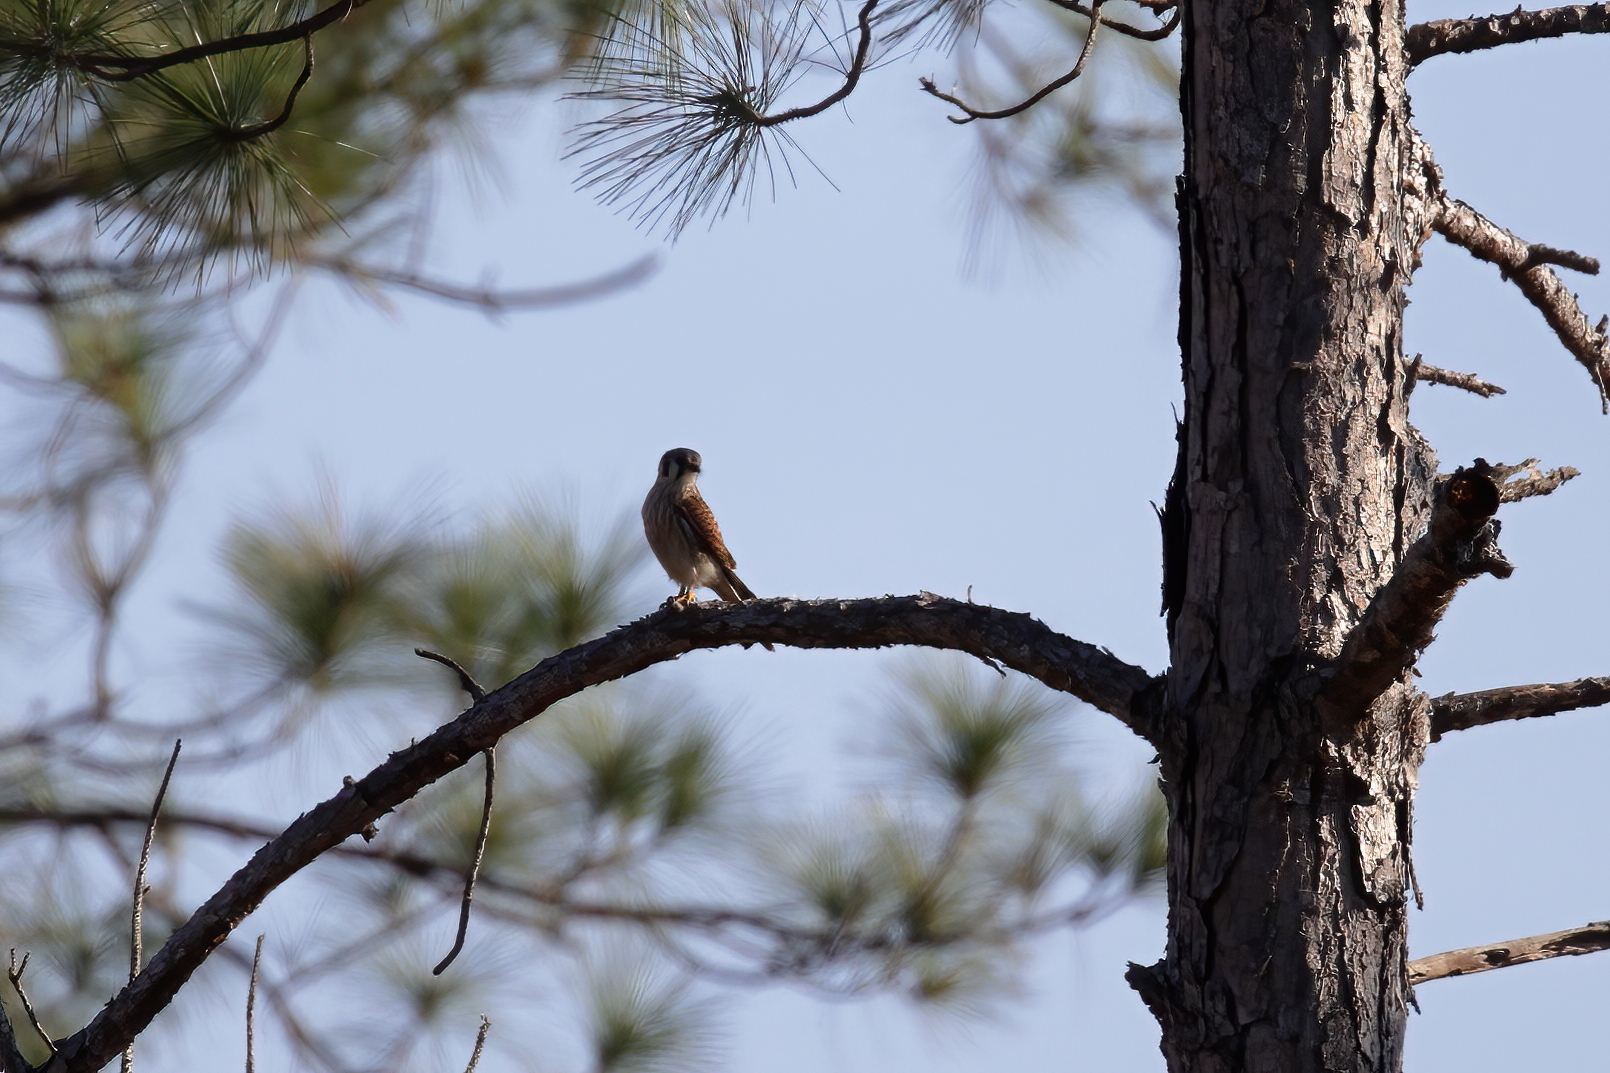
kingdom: Animalia
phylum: Chordata
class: Aves
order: Falconiformes
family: Falconidae
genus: Falco
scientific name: Falco sparverius
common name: American kestrel
